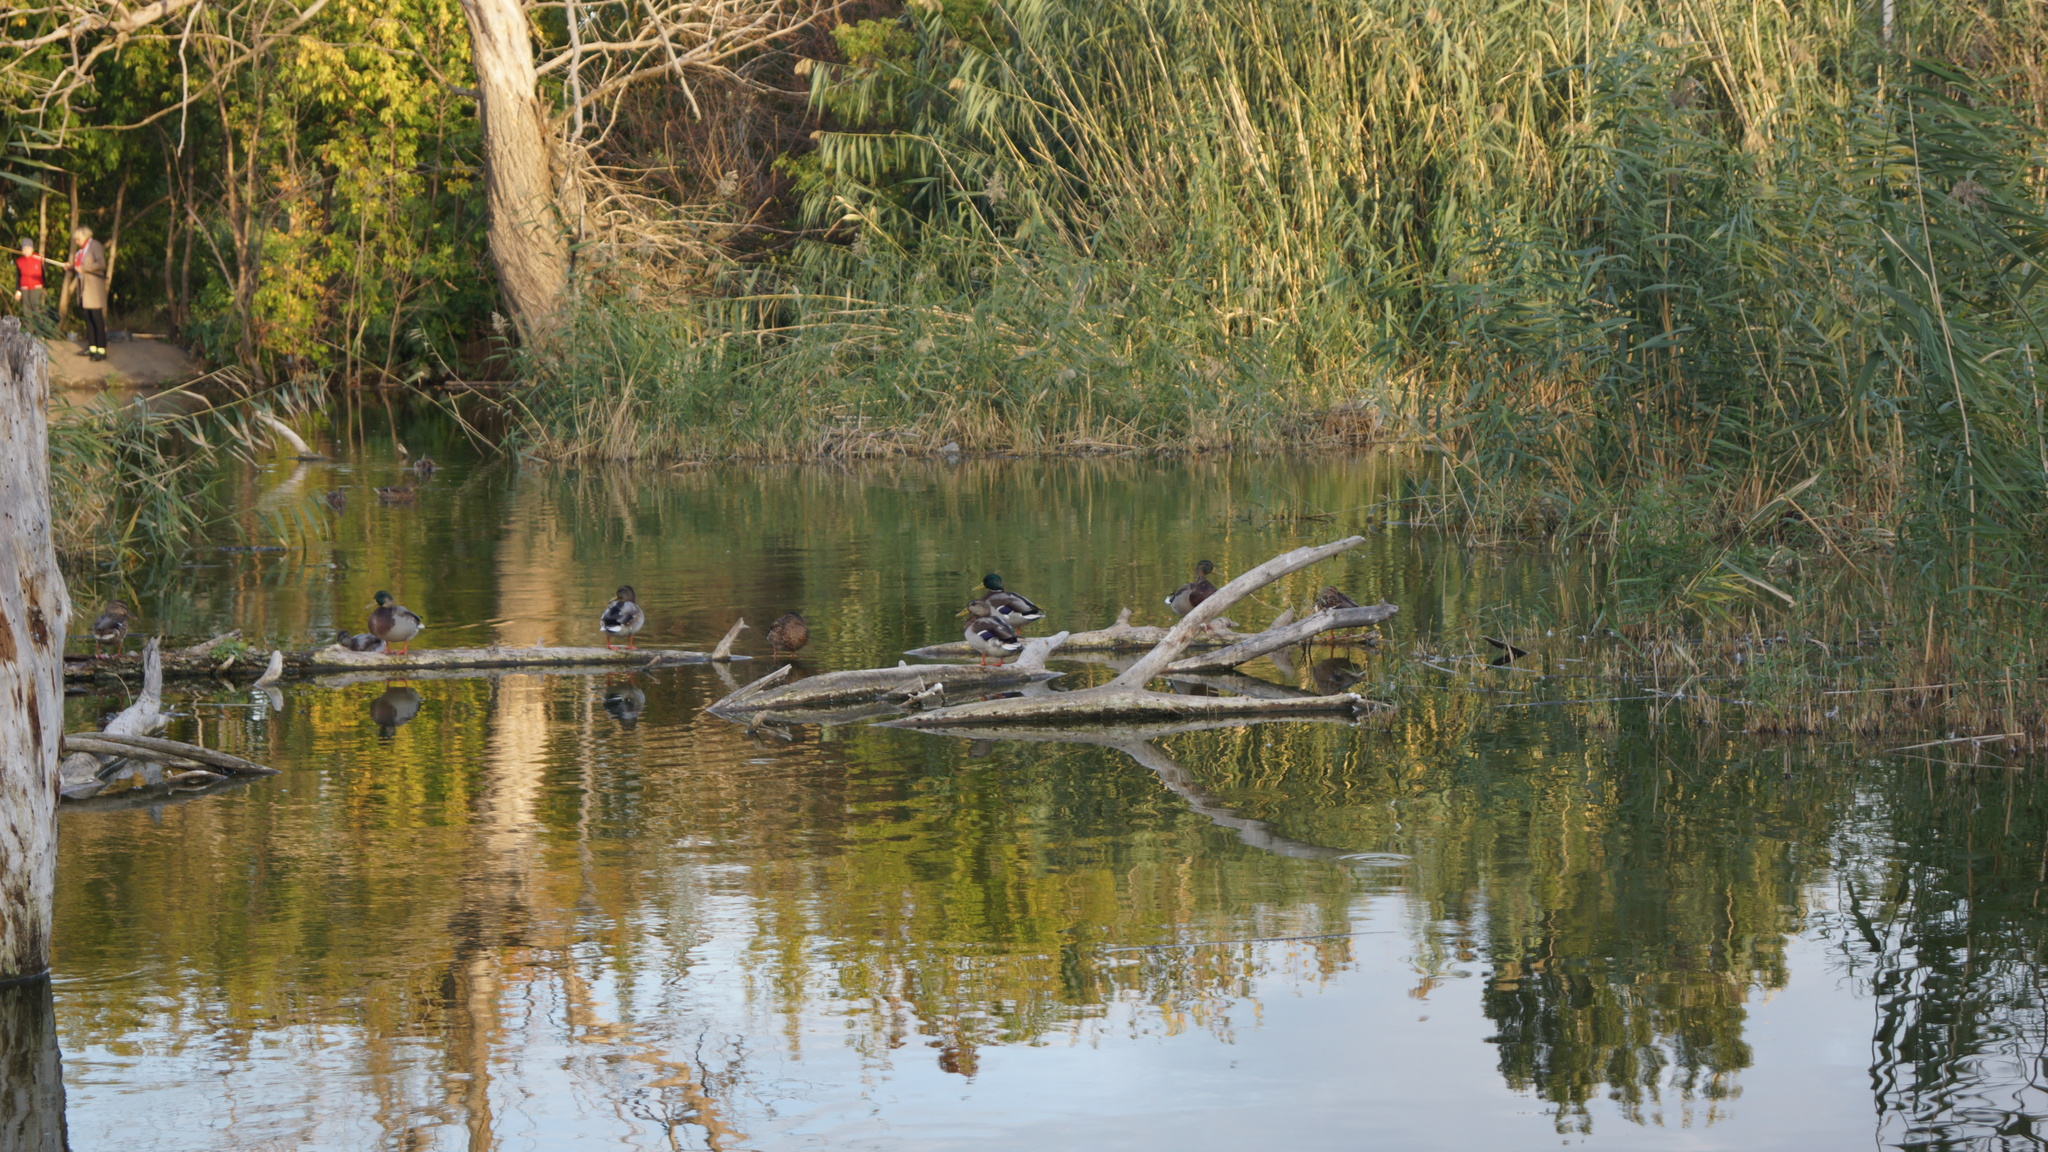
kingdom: Animalia
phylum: Chordata
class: Aves
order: Anseriformes
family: Anatidae
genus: Anas
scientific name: Anas platyrhynchos
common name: Mallard
